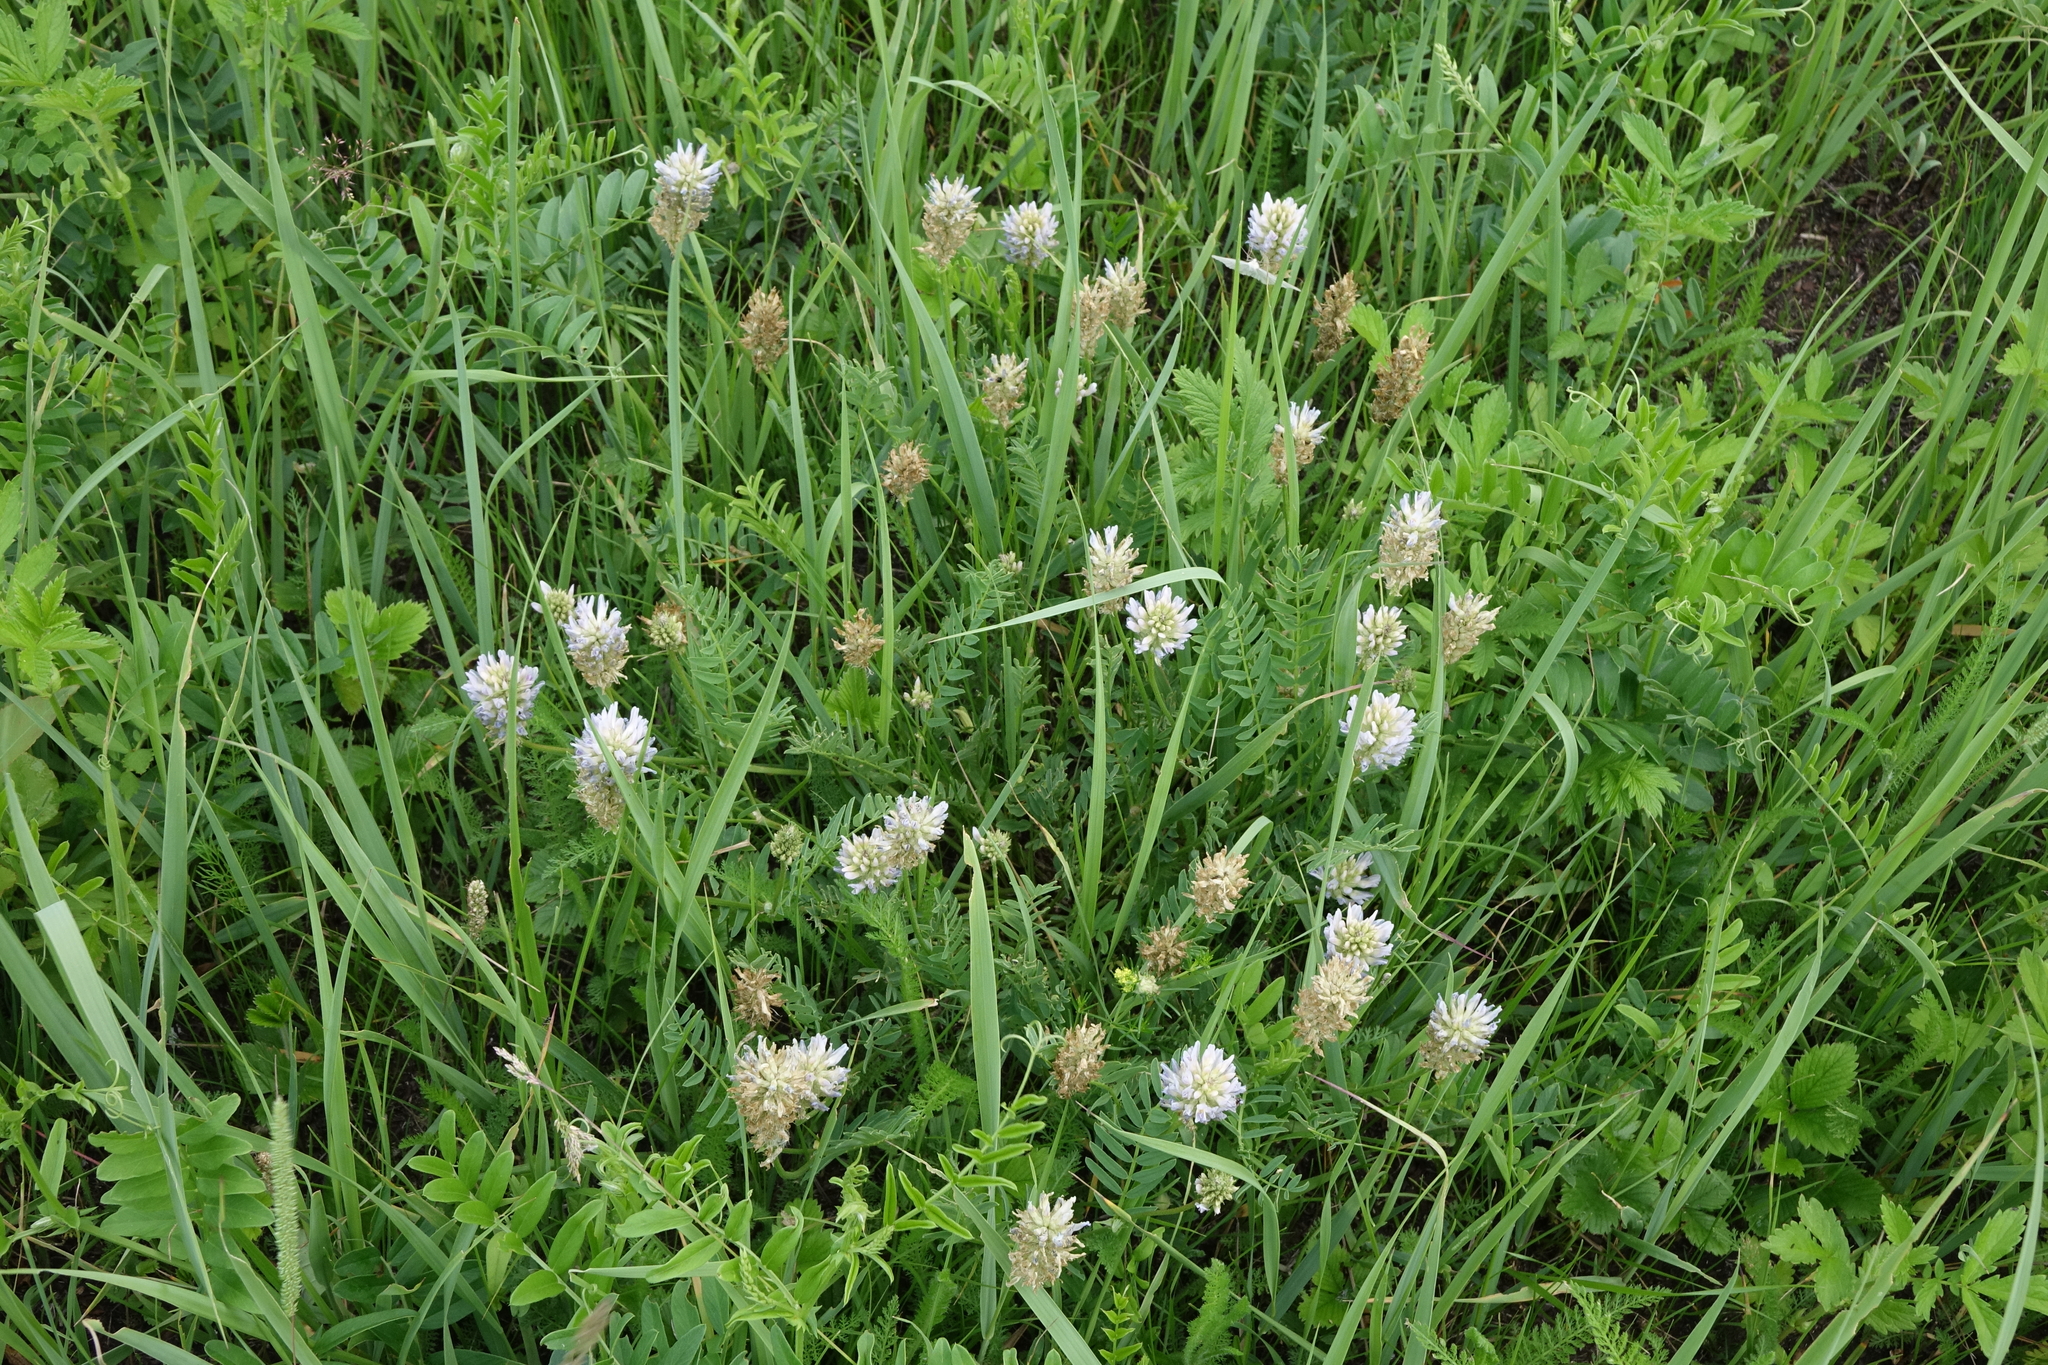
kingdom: Plantae
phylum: Tracheophyta
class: Magnoliopsida
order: Fabales
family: Fabaceae
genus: Astragalus
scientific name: Astragalus laxmannii
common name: Laxmann's milk-vetch
